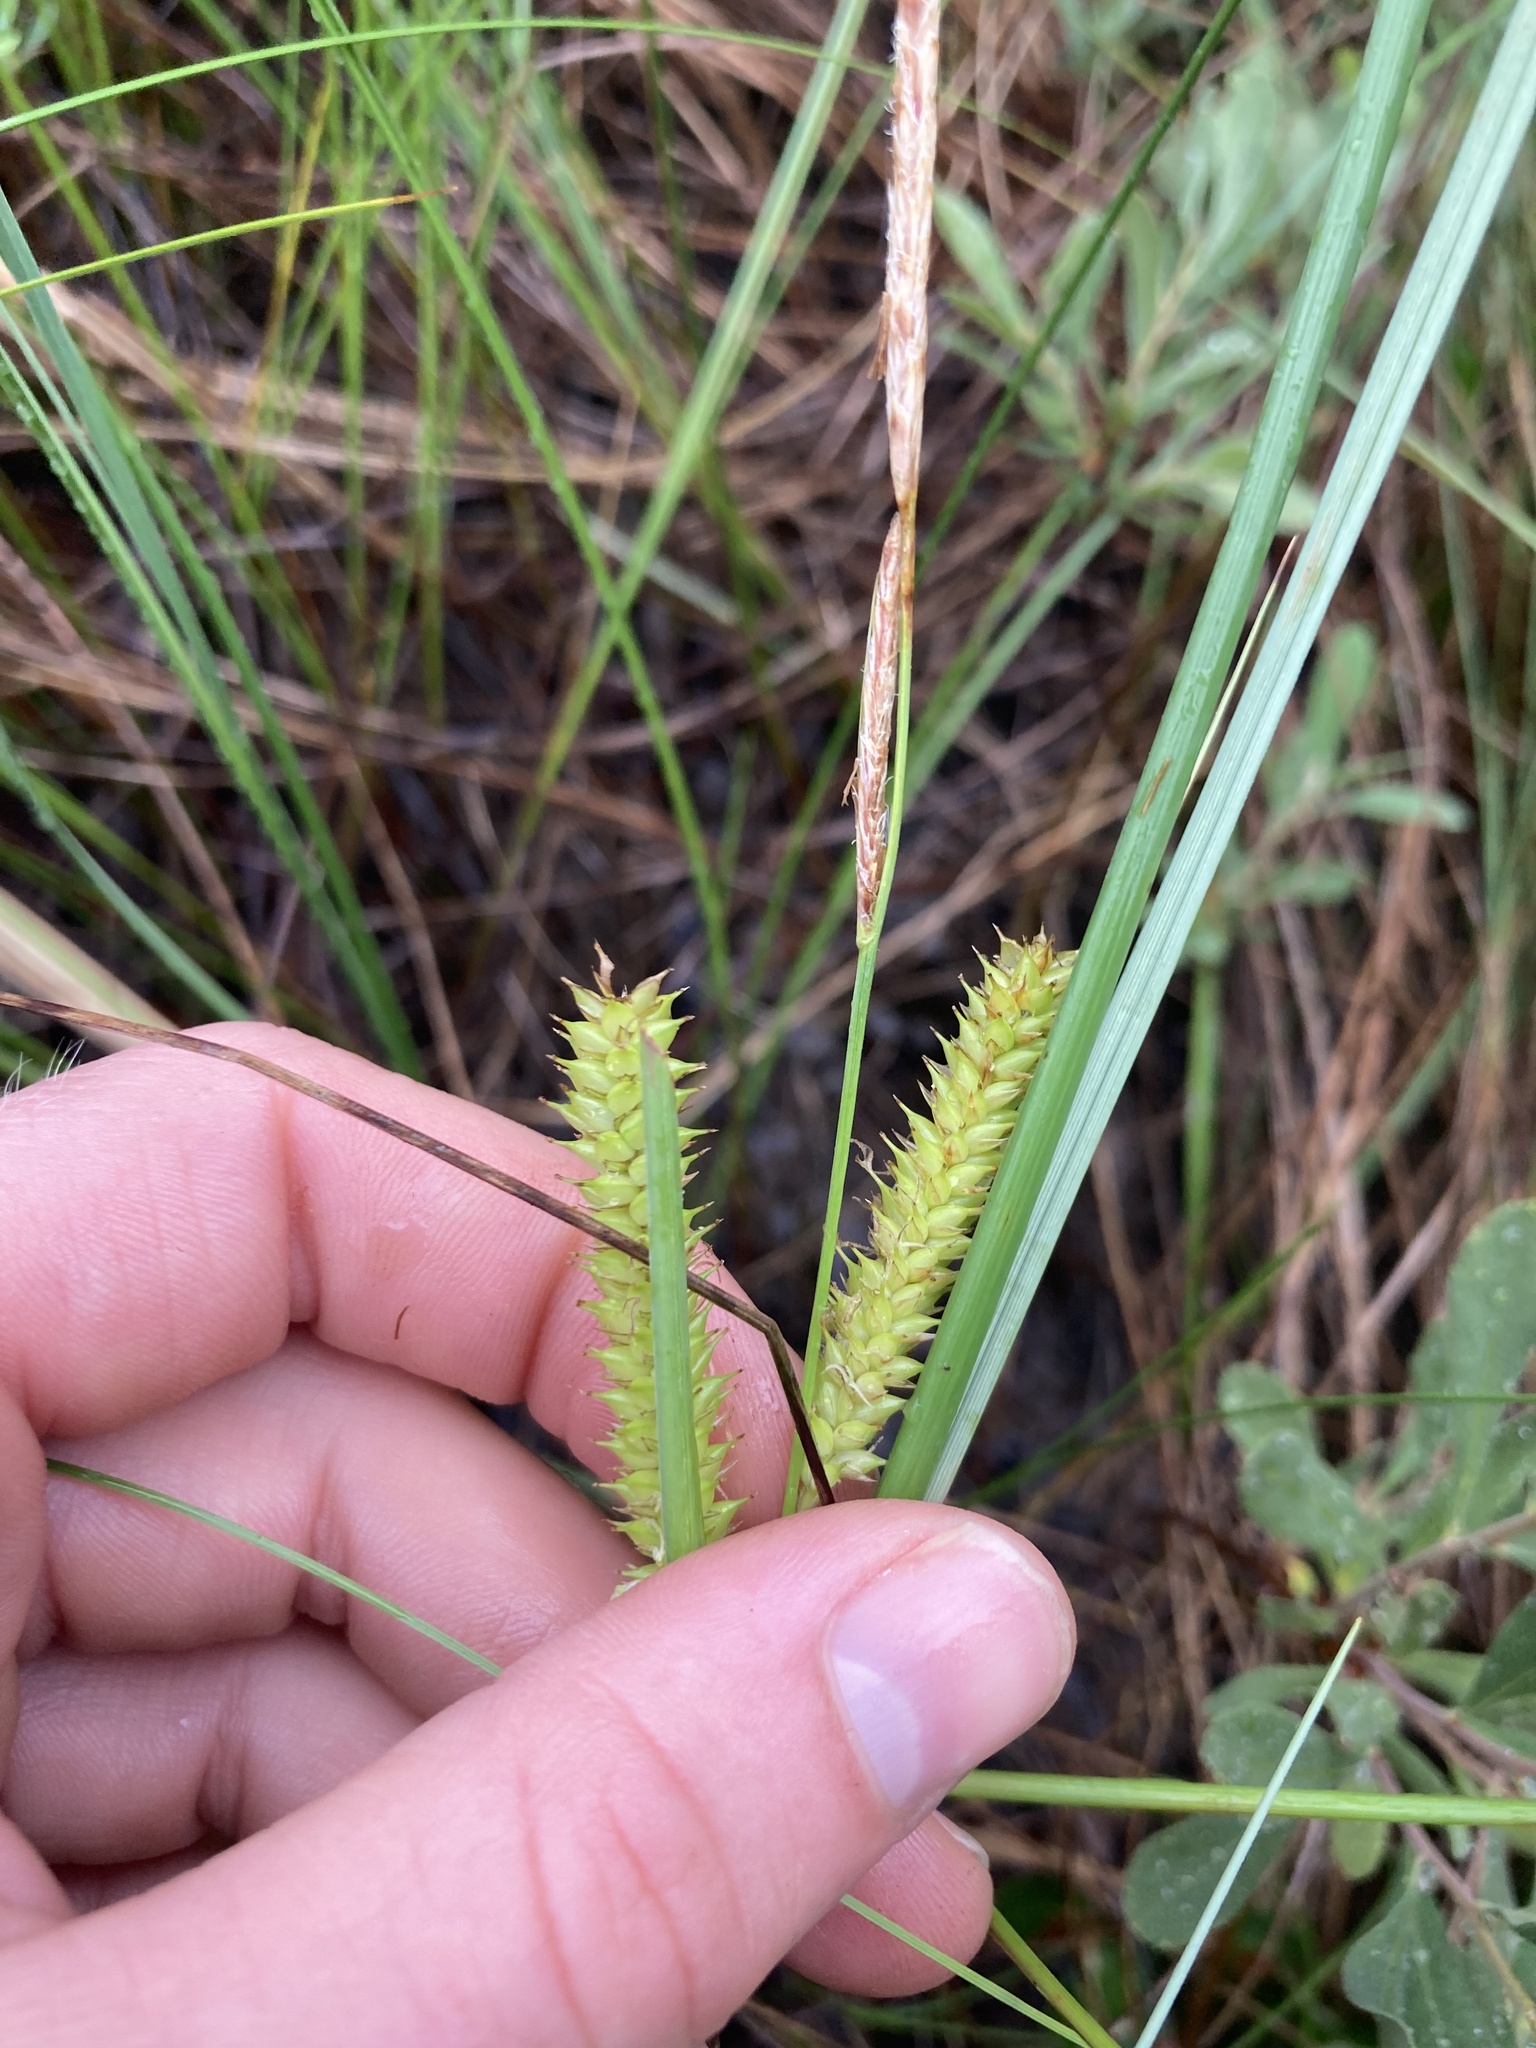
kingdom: Plantae
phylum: Tracheophyta
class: Liliopsida
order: Poales
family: Cyperaceae
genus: Carex
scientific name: Carex rostrata
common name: Bottle sedge
